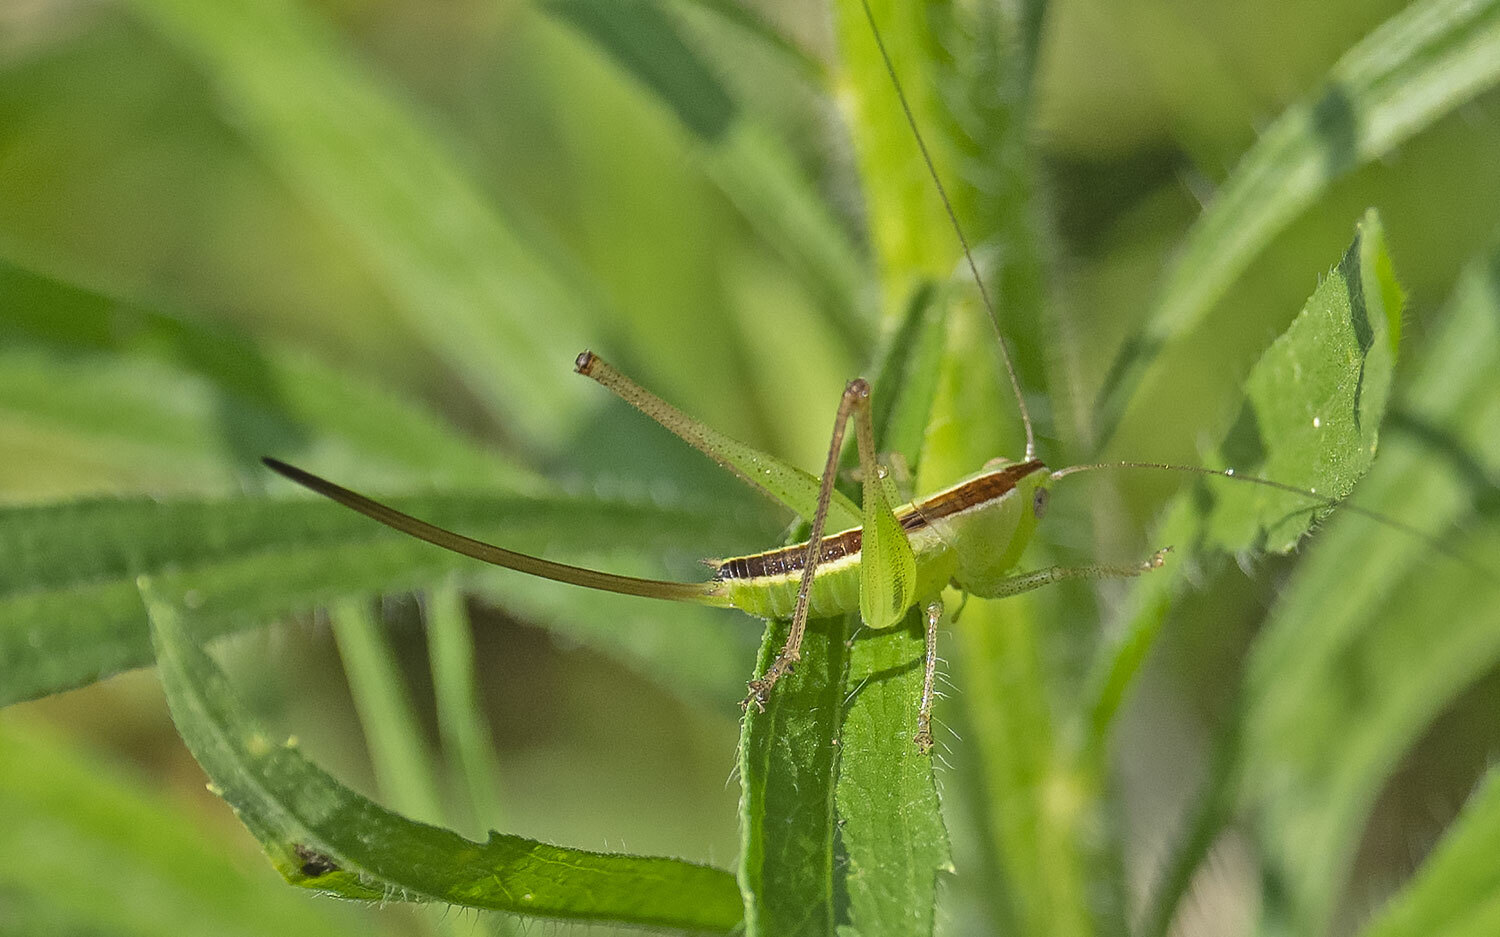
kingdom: Animalia
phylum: Arthropoda
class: Insecta
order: Orthoptera
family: Tettigoniidae
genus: Conocephalus
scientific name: Conocephalus strictus
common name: Straight-lanced katydid
